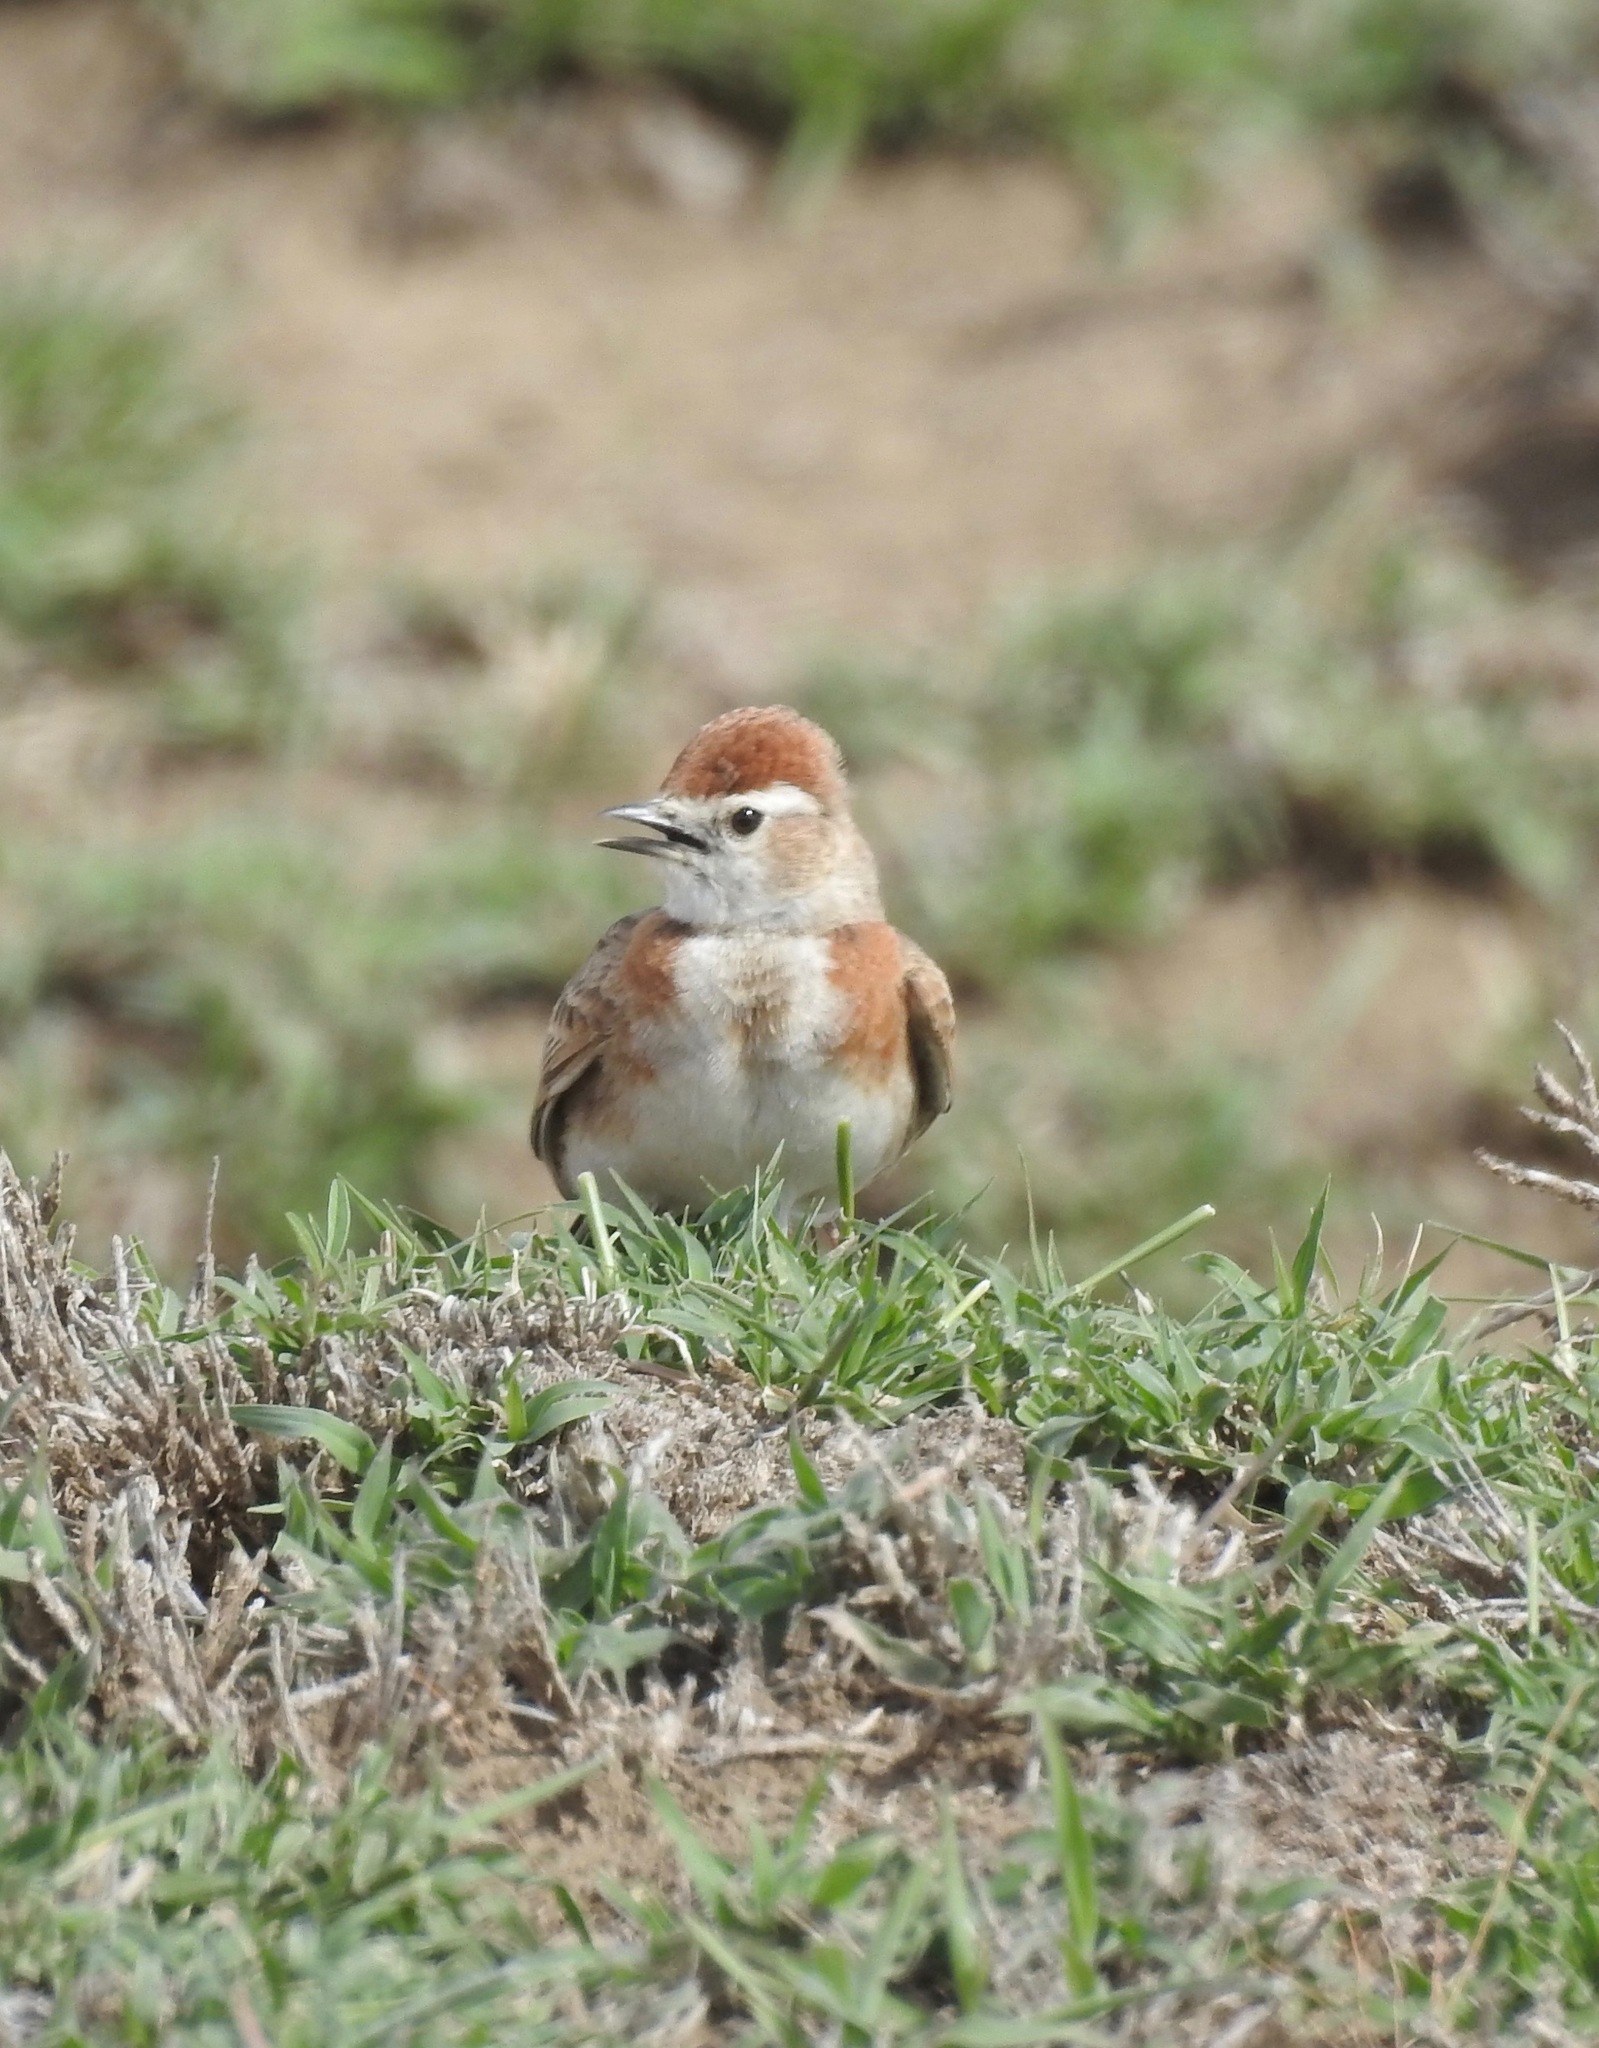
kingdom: Animalia
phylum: Chordata
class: Aves
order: Passeriformes
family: Alaudidae
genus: Calandrella
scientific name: Calandrella cinerea
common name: Red-capped lark
